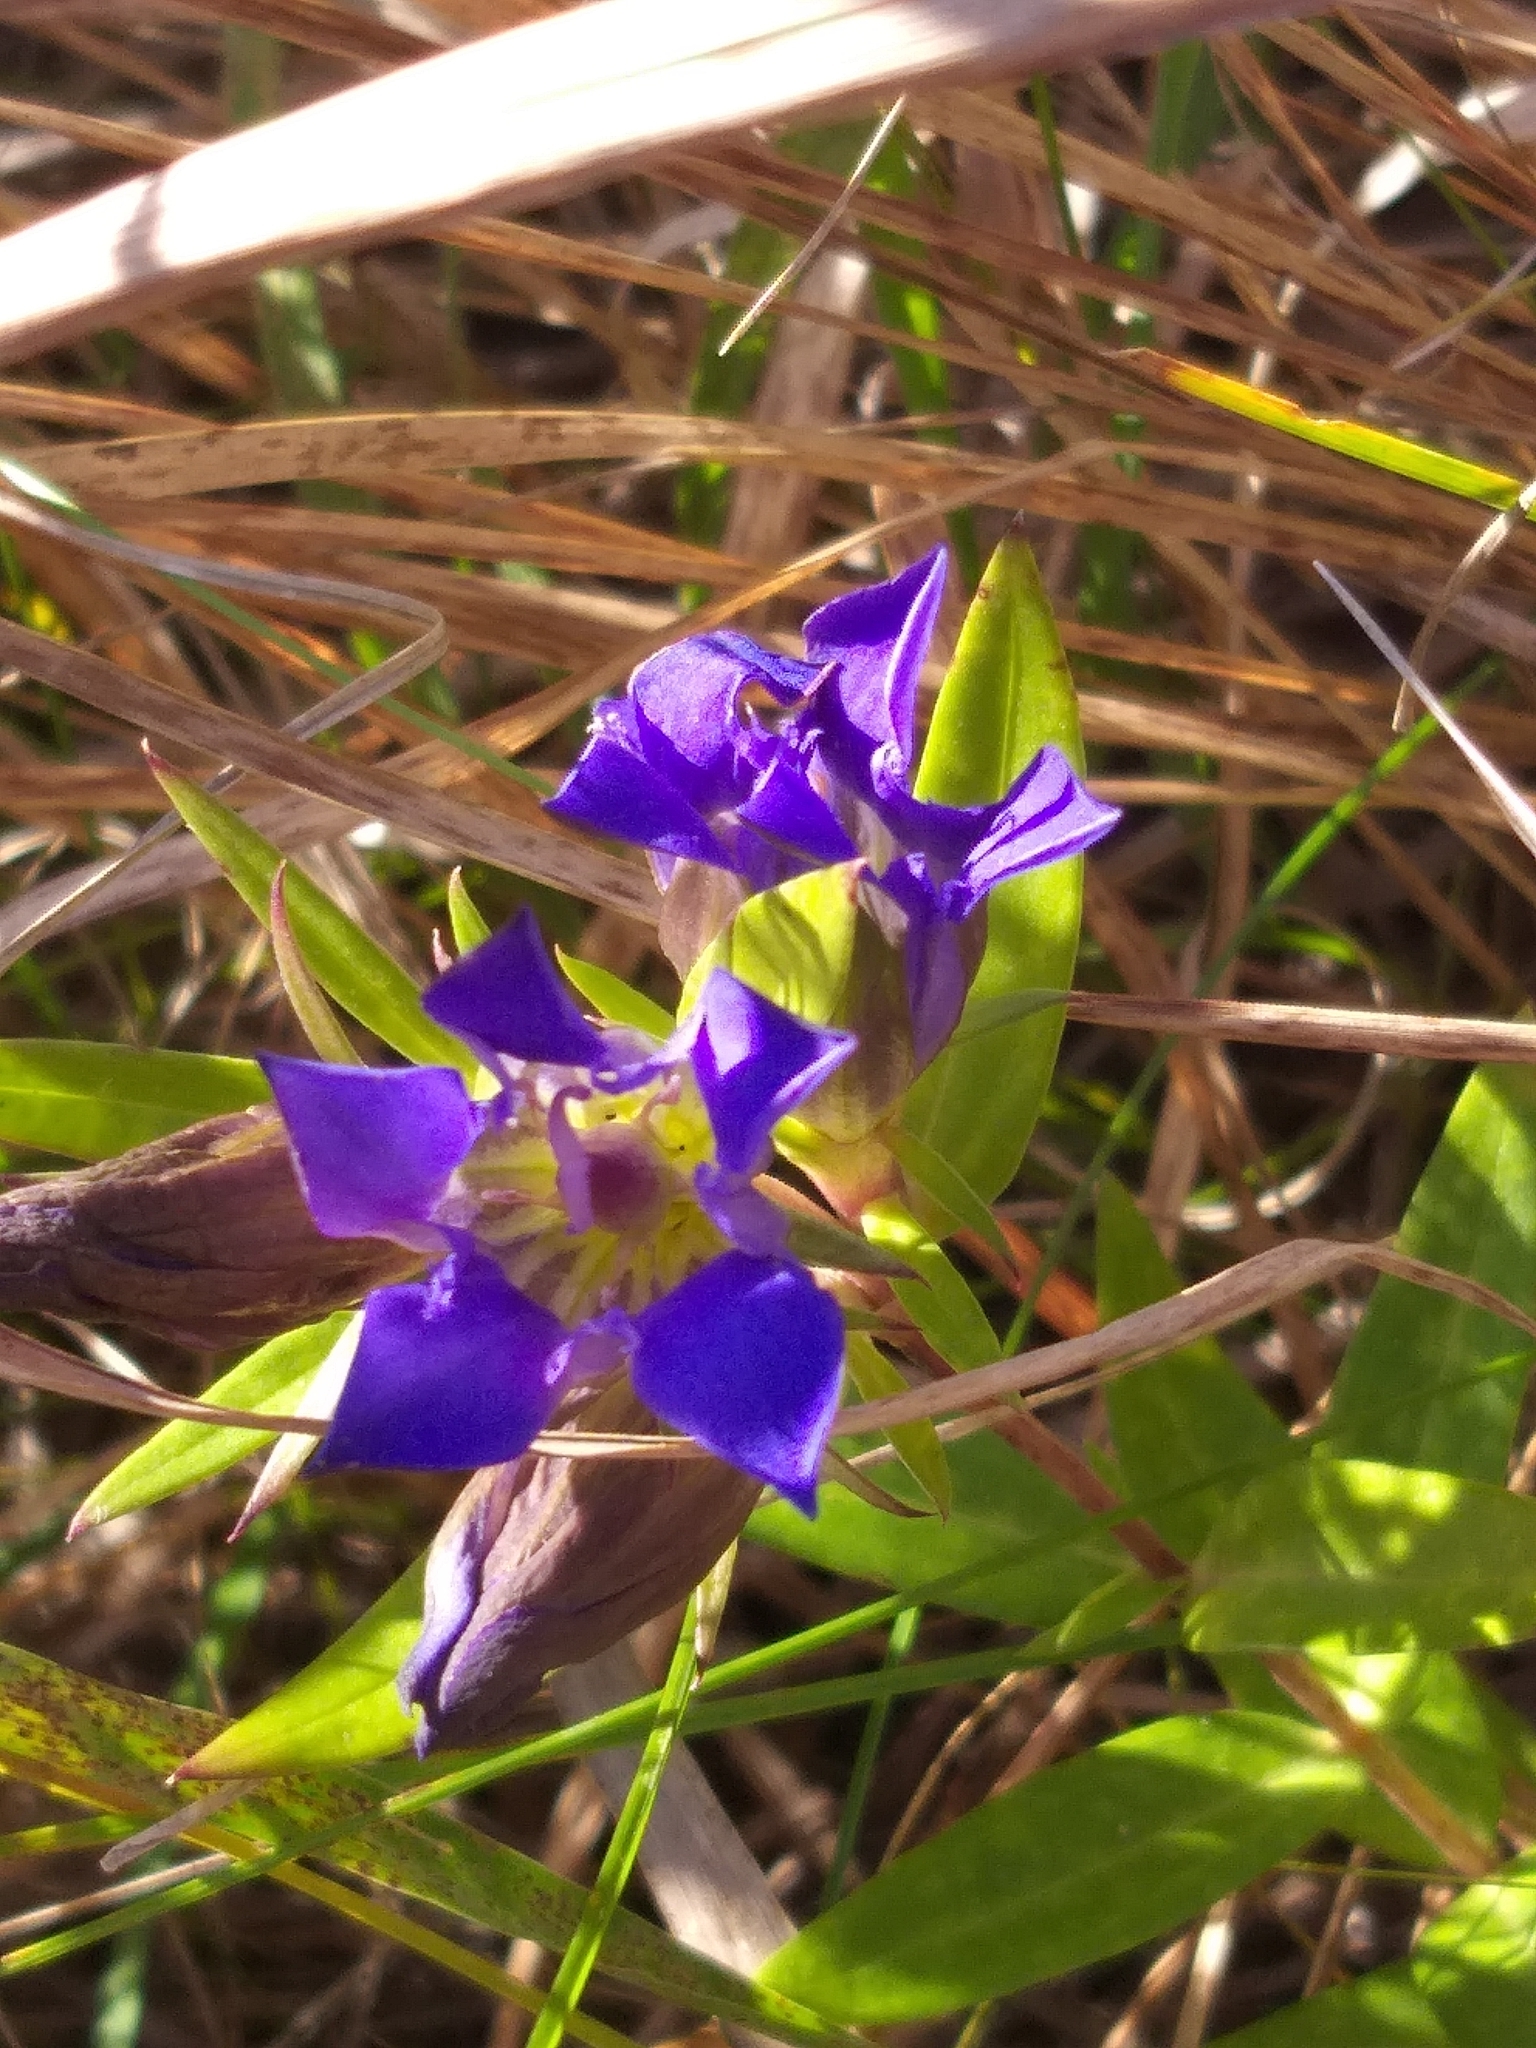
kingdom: Plantae
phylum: Tracheophyta
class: Magnoliopsida
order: Gentianales
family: Gentianaceae
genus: Gentiana
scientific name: Gentiana puberulenta
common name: Downy gentian
